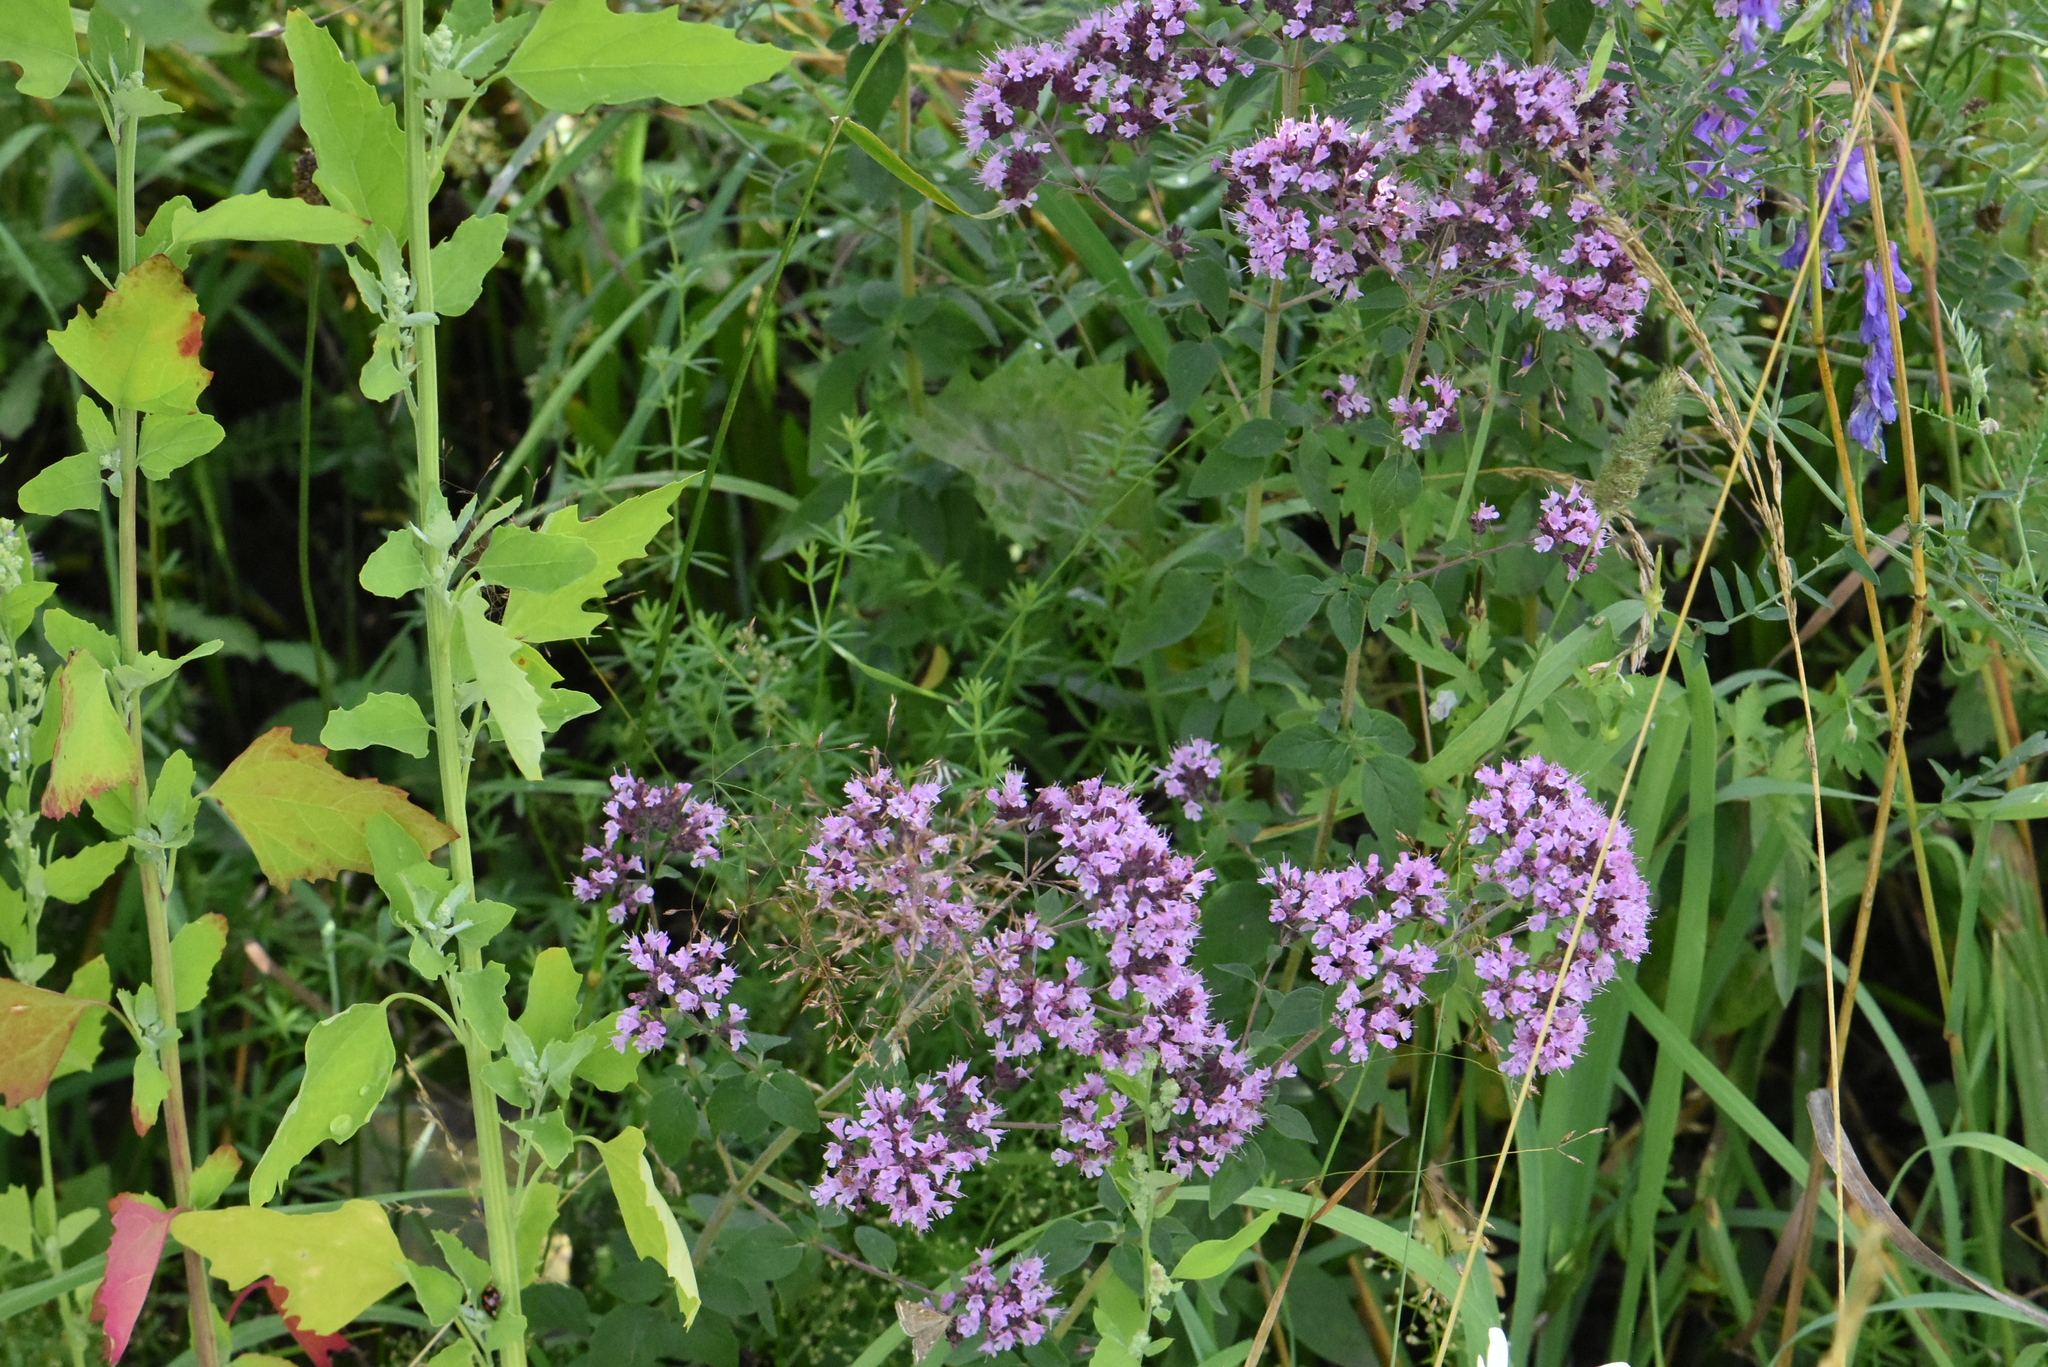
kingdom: Plantae
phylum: Tracheophyta
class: Magnoliopsida
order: Lamiales
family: Lamiaceae
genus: Origanum
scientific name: Origanum vulgare
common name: Wild marjoram
